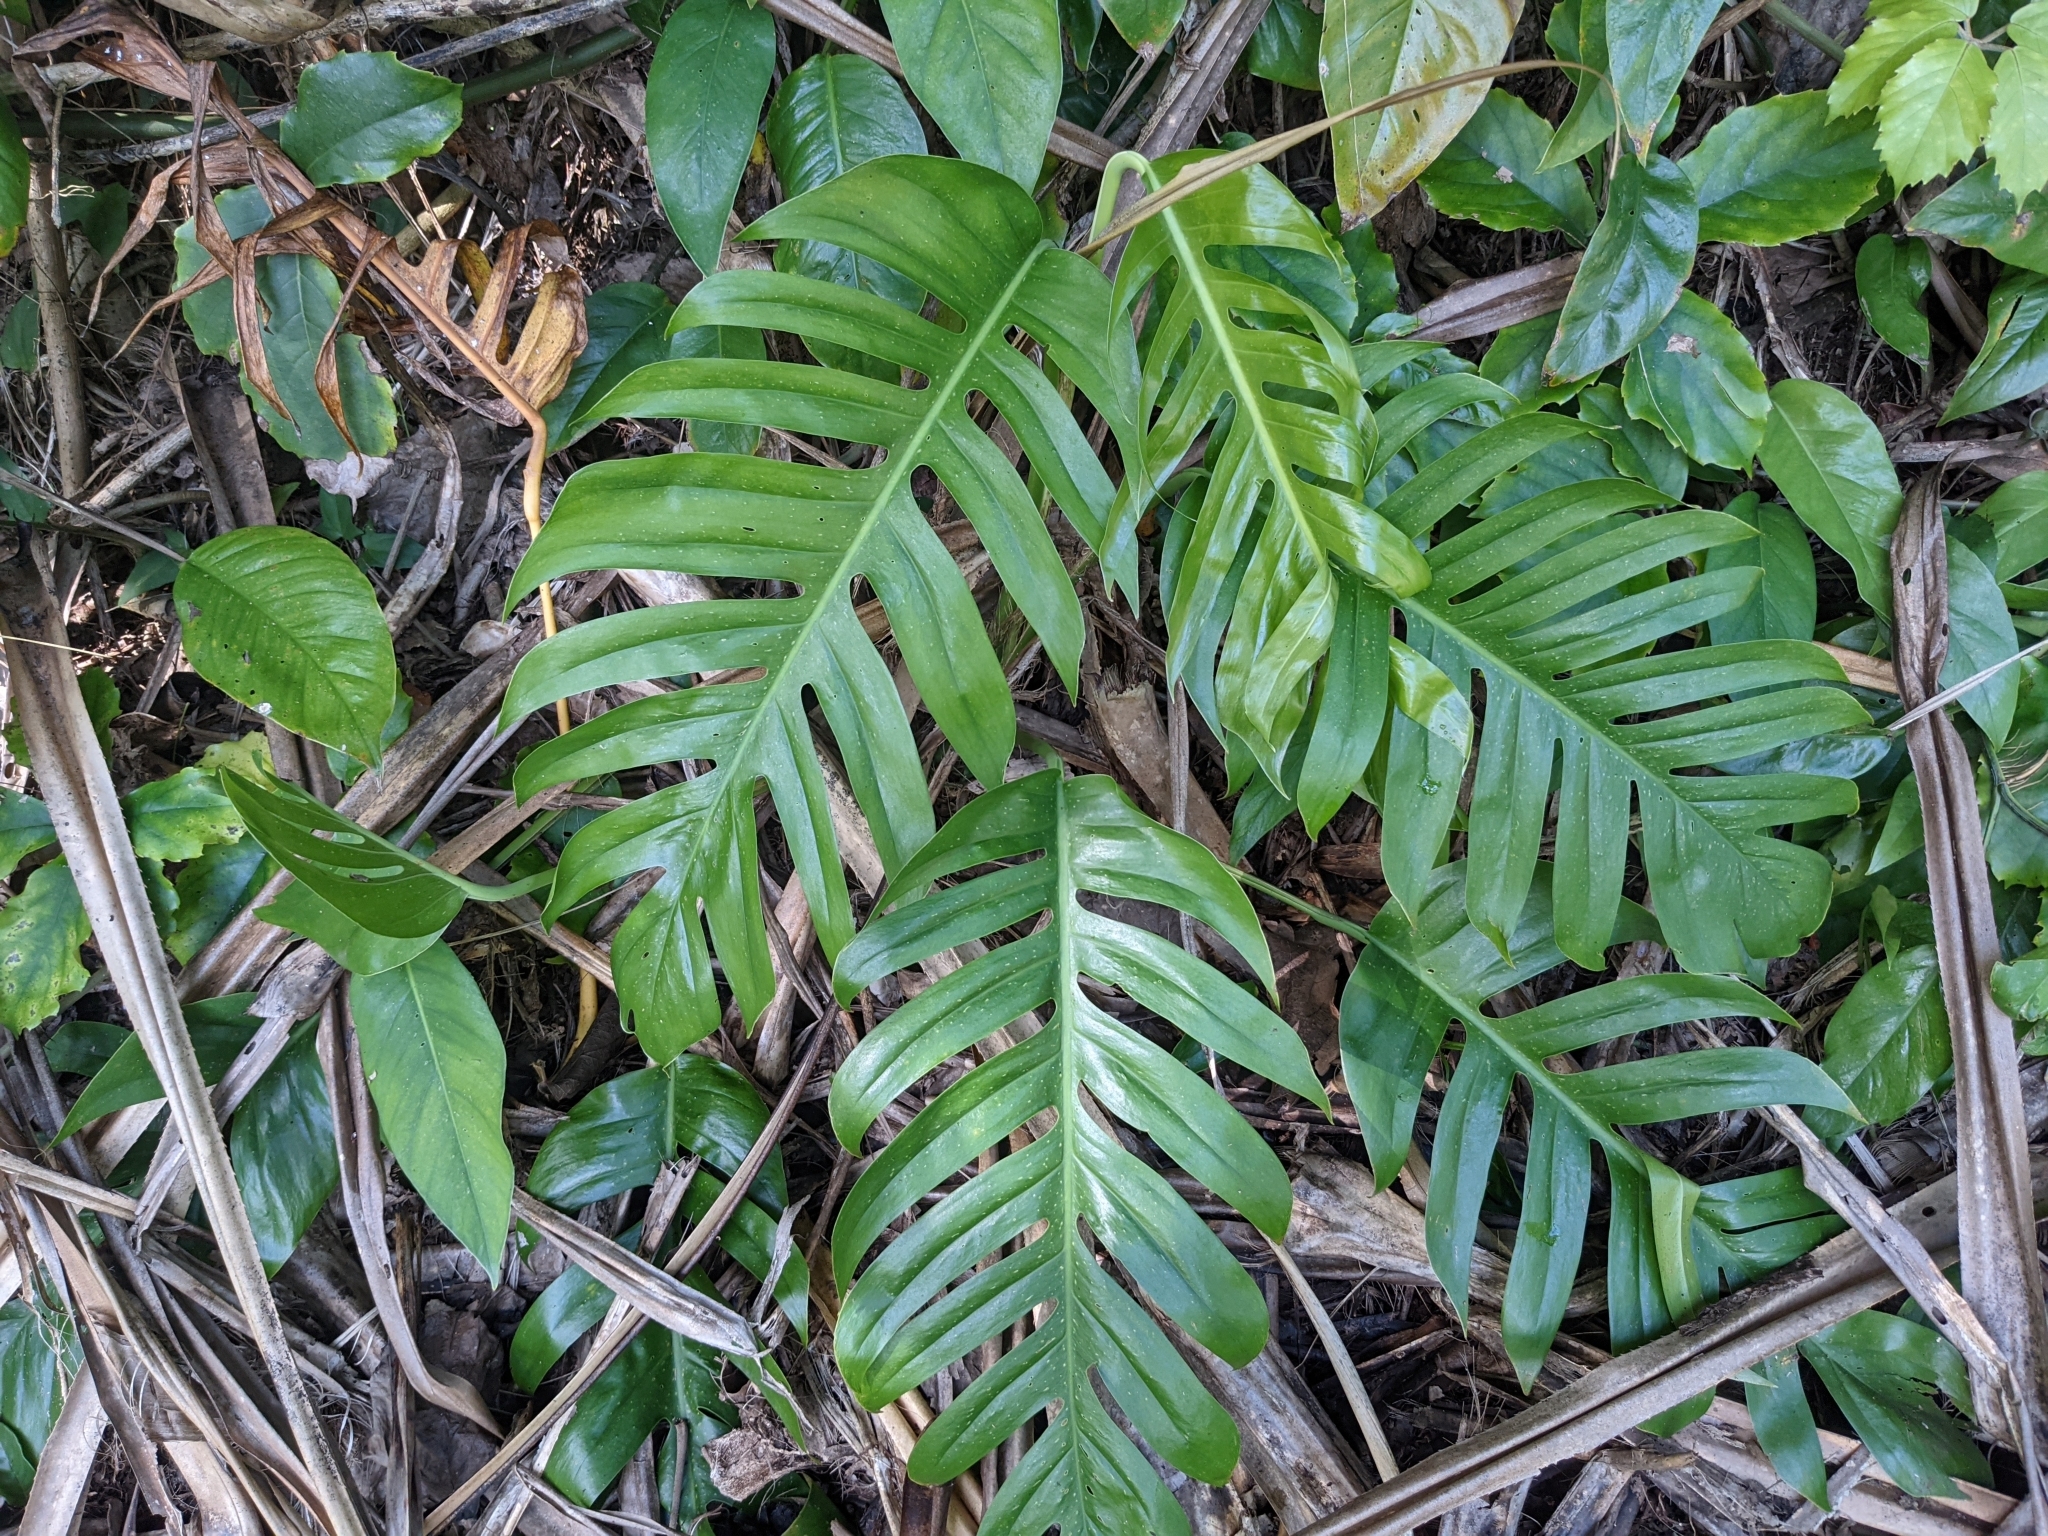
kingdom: Plantae
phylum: Tracheophyta
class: Liliopsida
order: Alismatales
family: Araceae
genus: Epipremnum
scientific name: Epipremnum pinnatum
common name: Centipede tongavine
